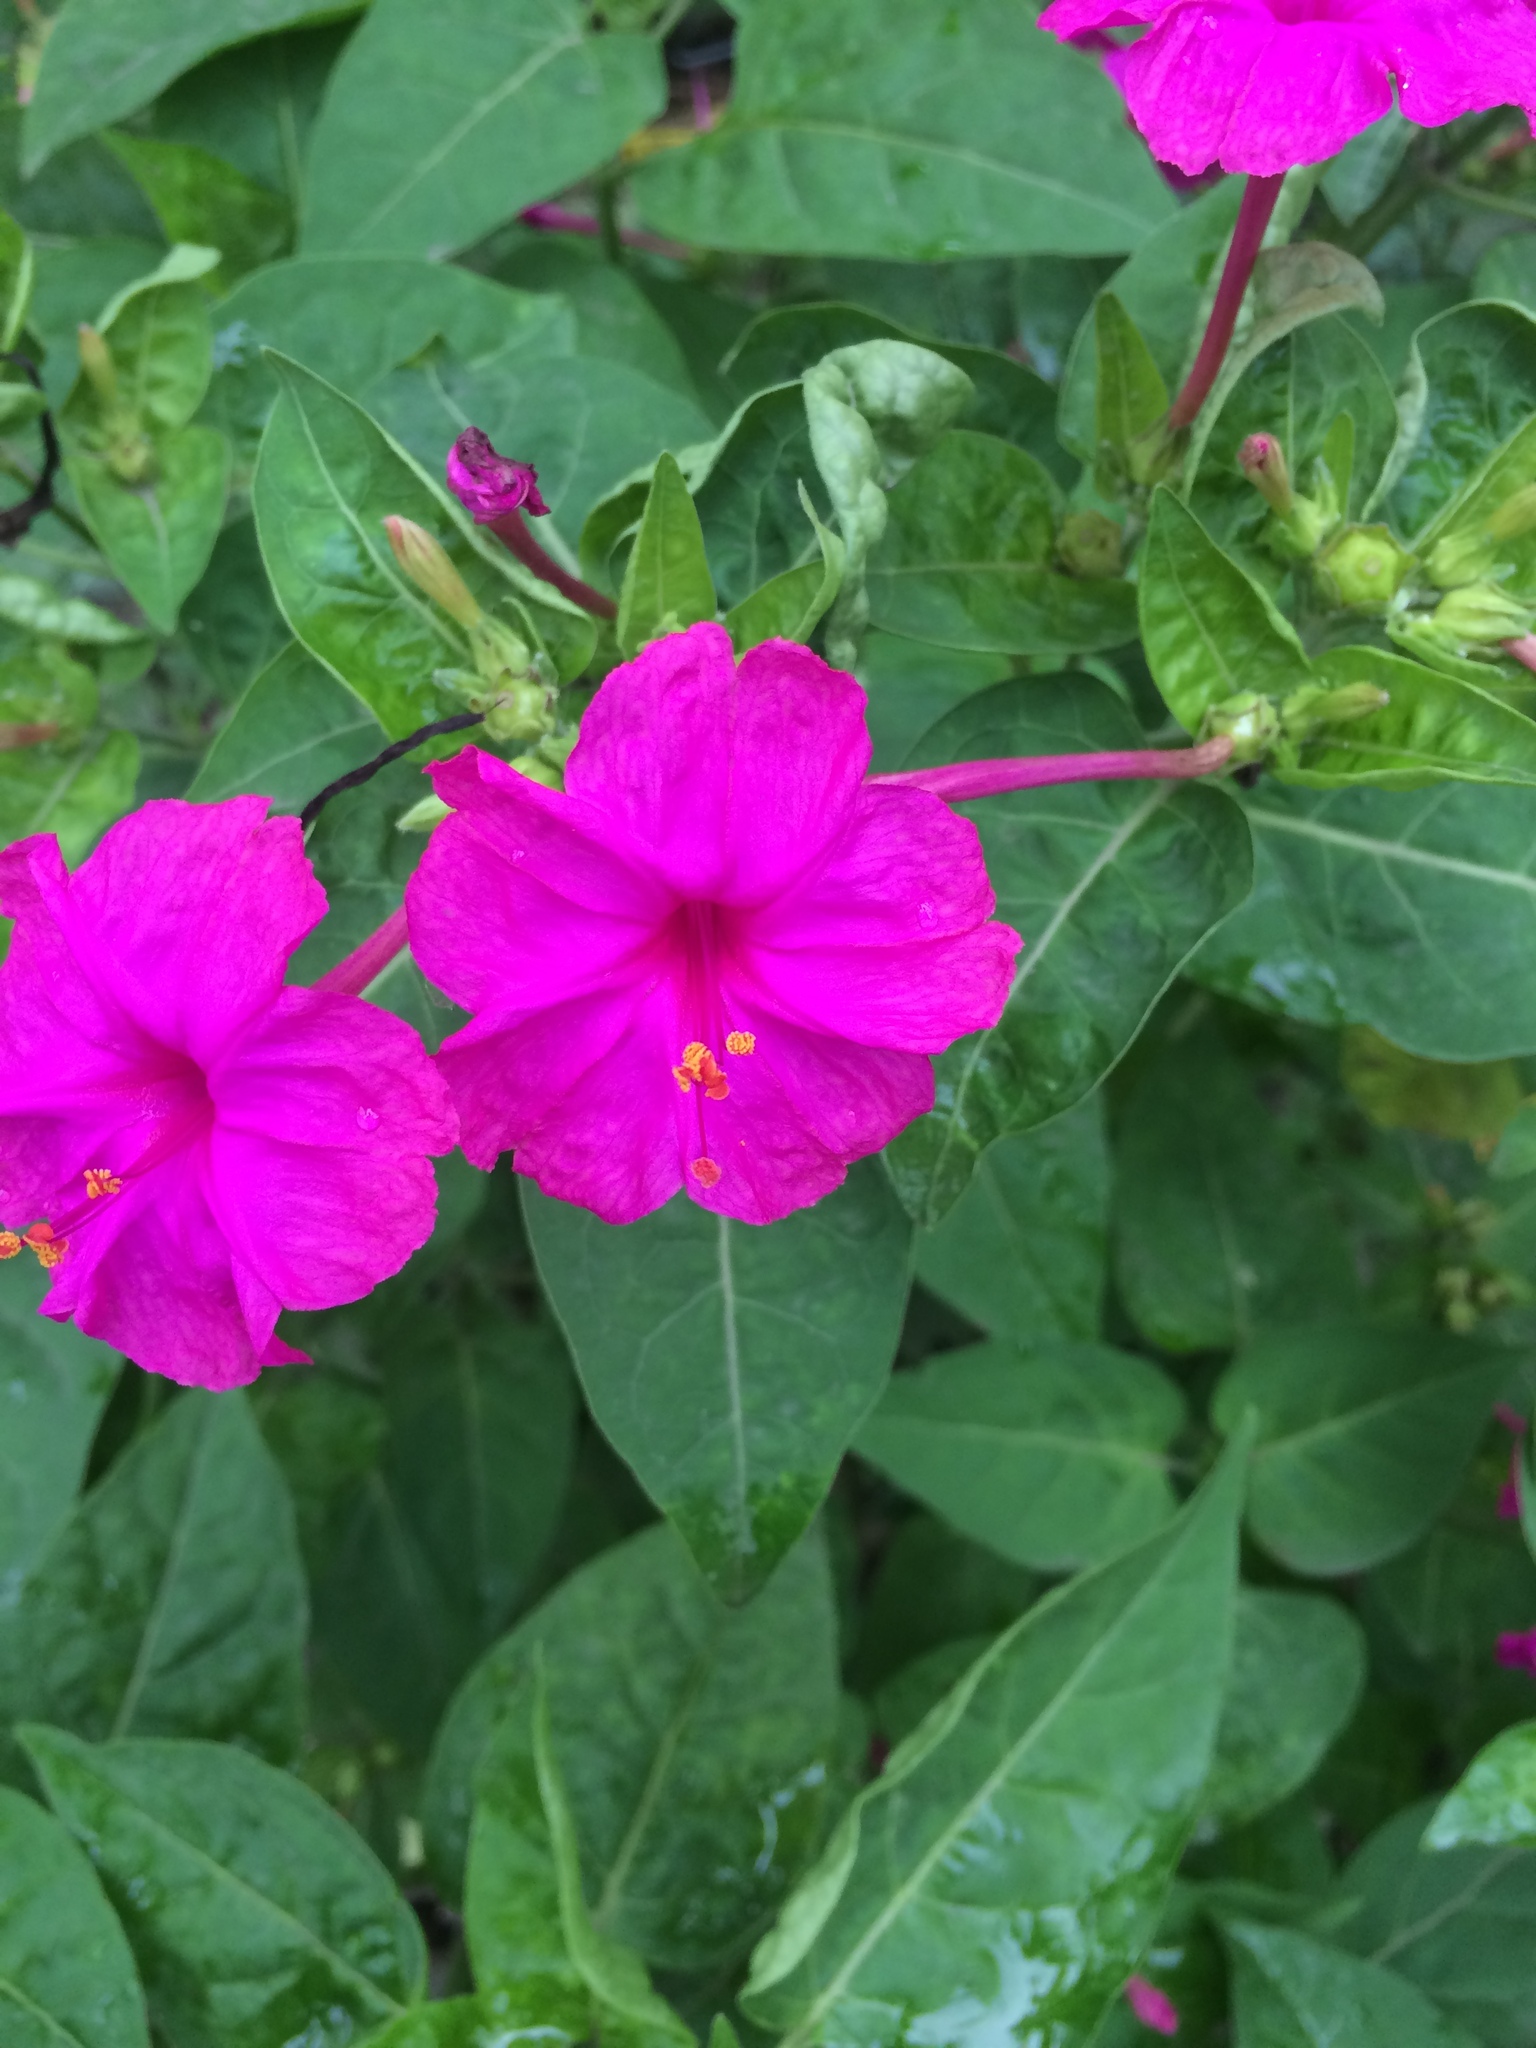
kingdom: Plantae
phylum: Tracheophyta
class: Magnoliopsida
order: Caryophyllales
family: Nyctaginaceae
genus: Mirabilis
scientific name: Mirabilis jalapa
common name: Marvel-of-peru
